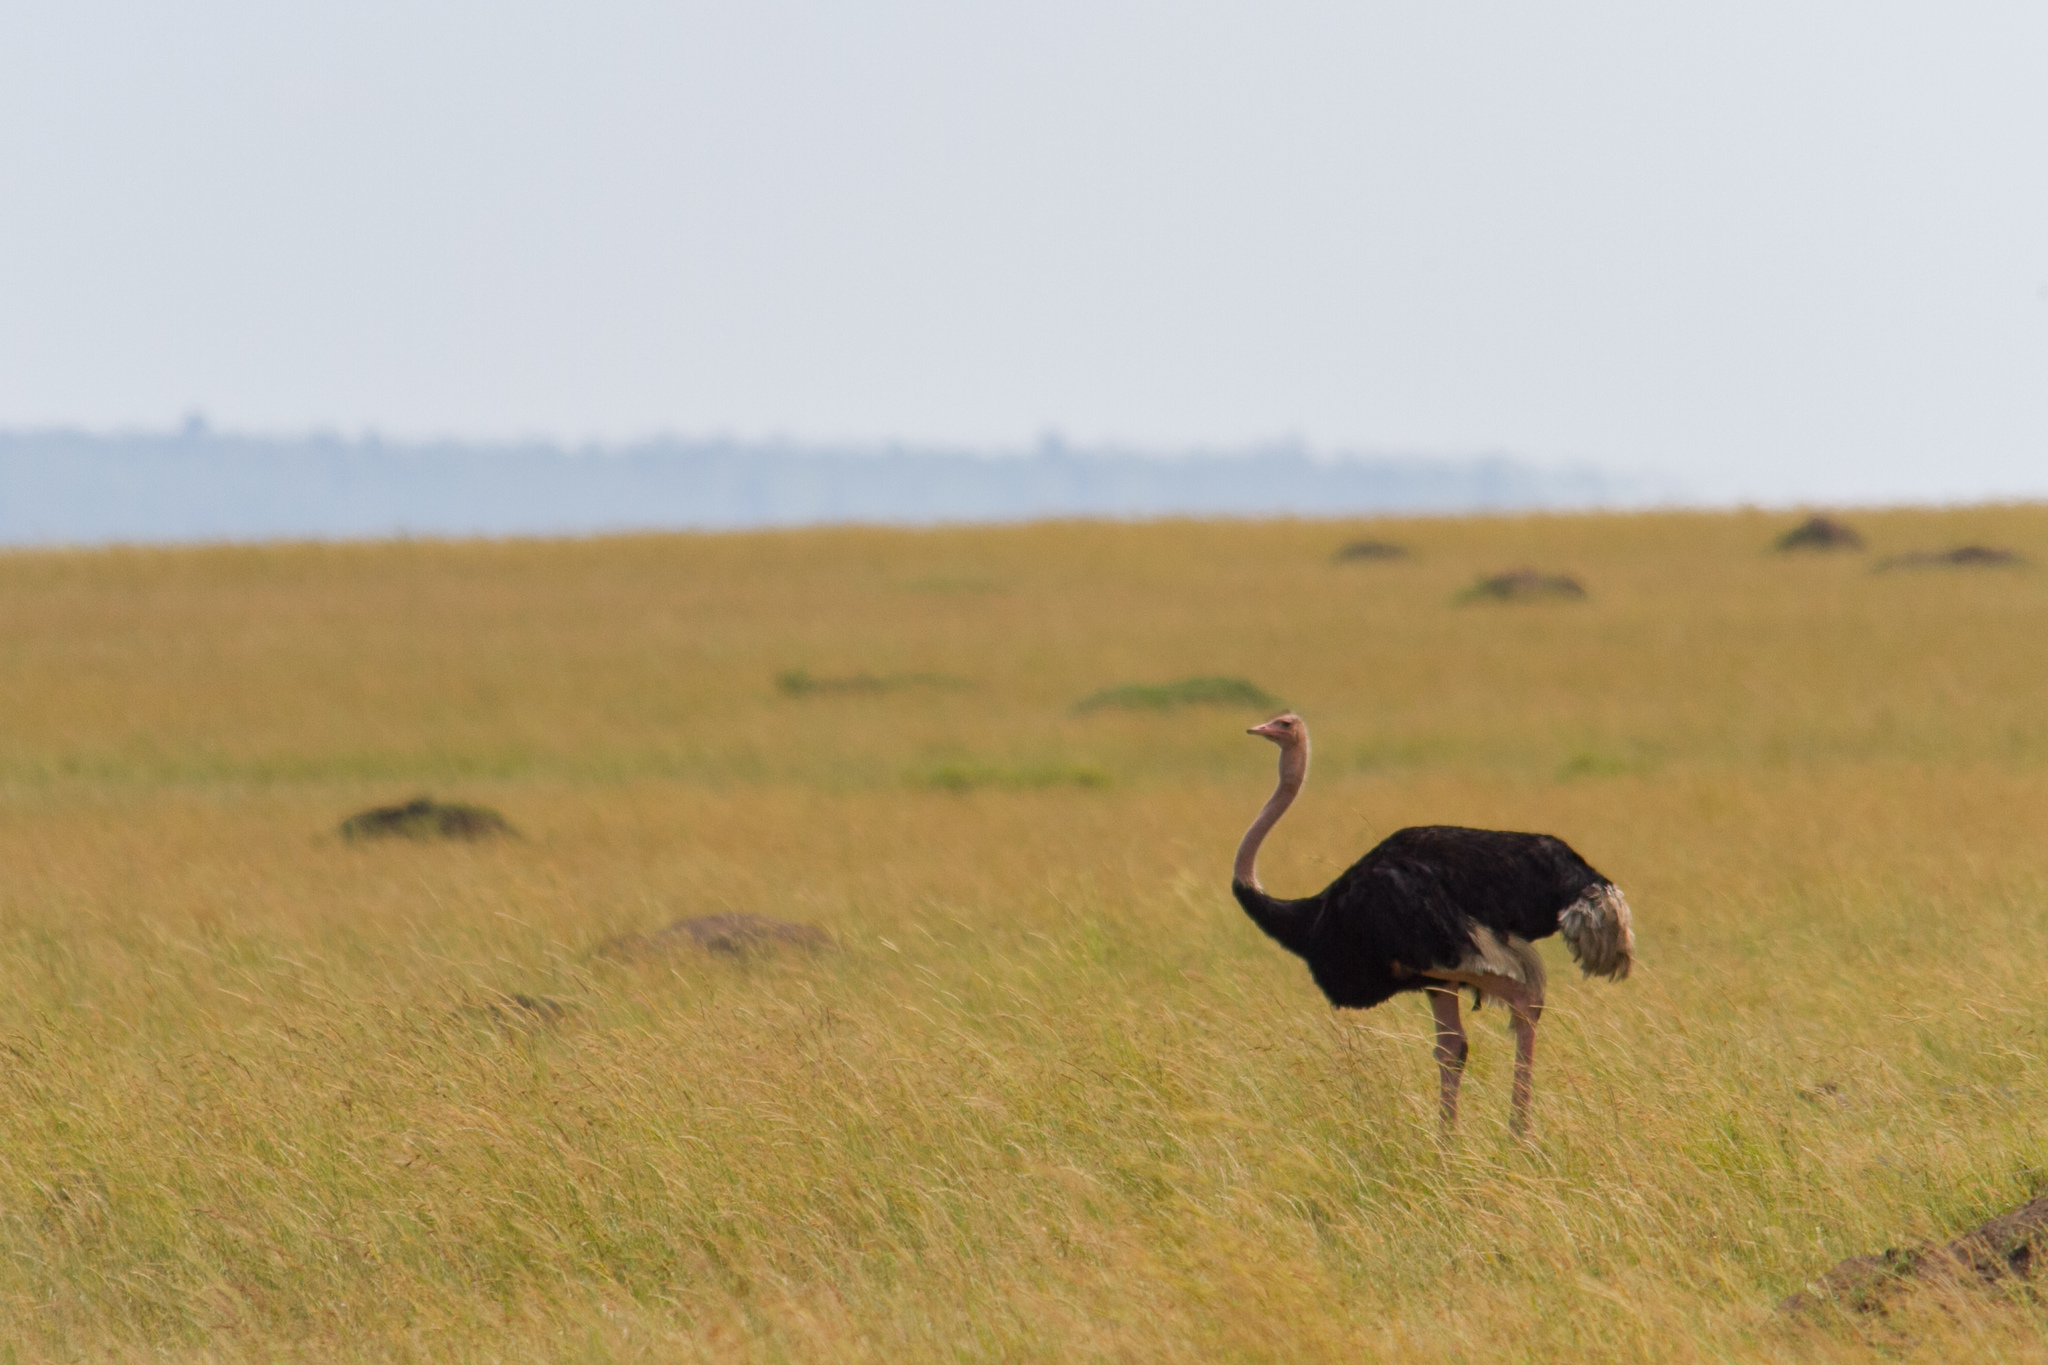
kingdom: Animalia
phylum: Chordata
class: Aves
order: Struthioniformes
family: Struthionidae
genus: Struthio
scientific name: Struthio camelus
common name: Common ostrich
